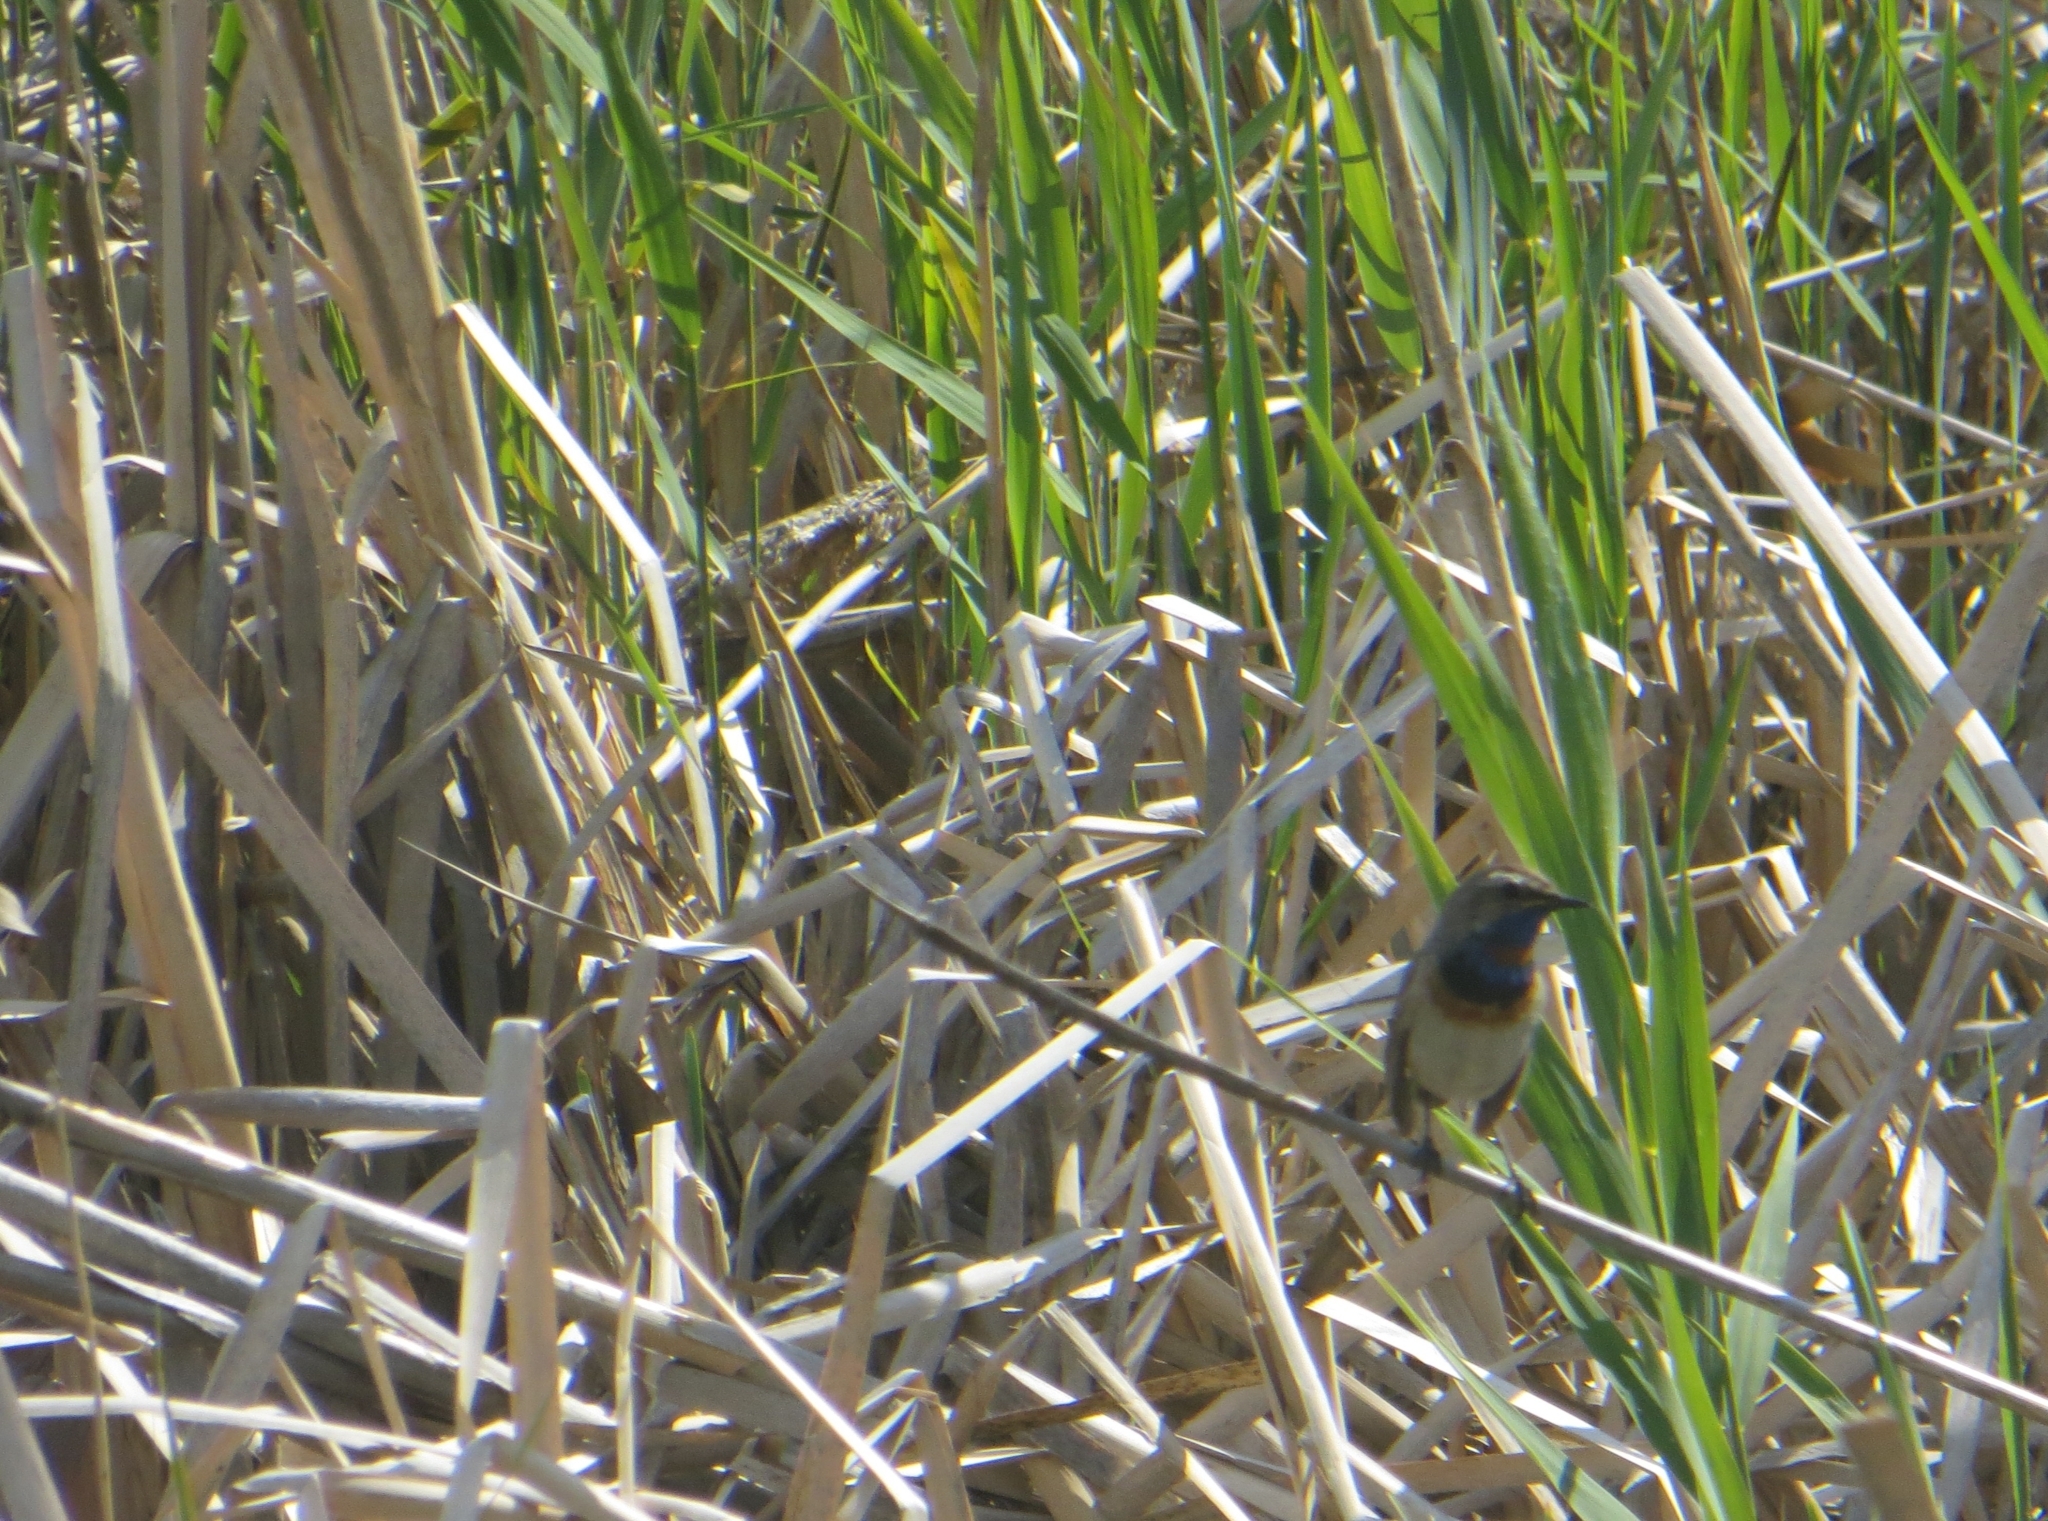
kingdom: Animalia
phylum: Chordata
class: Aves
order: Passeriformes
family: Muscicapidae
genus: Luscinia
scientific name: Luscinia svecica
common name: Bluethroat
